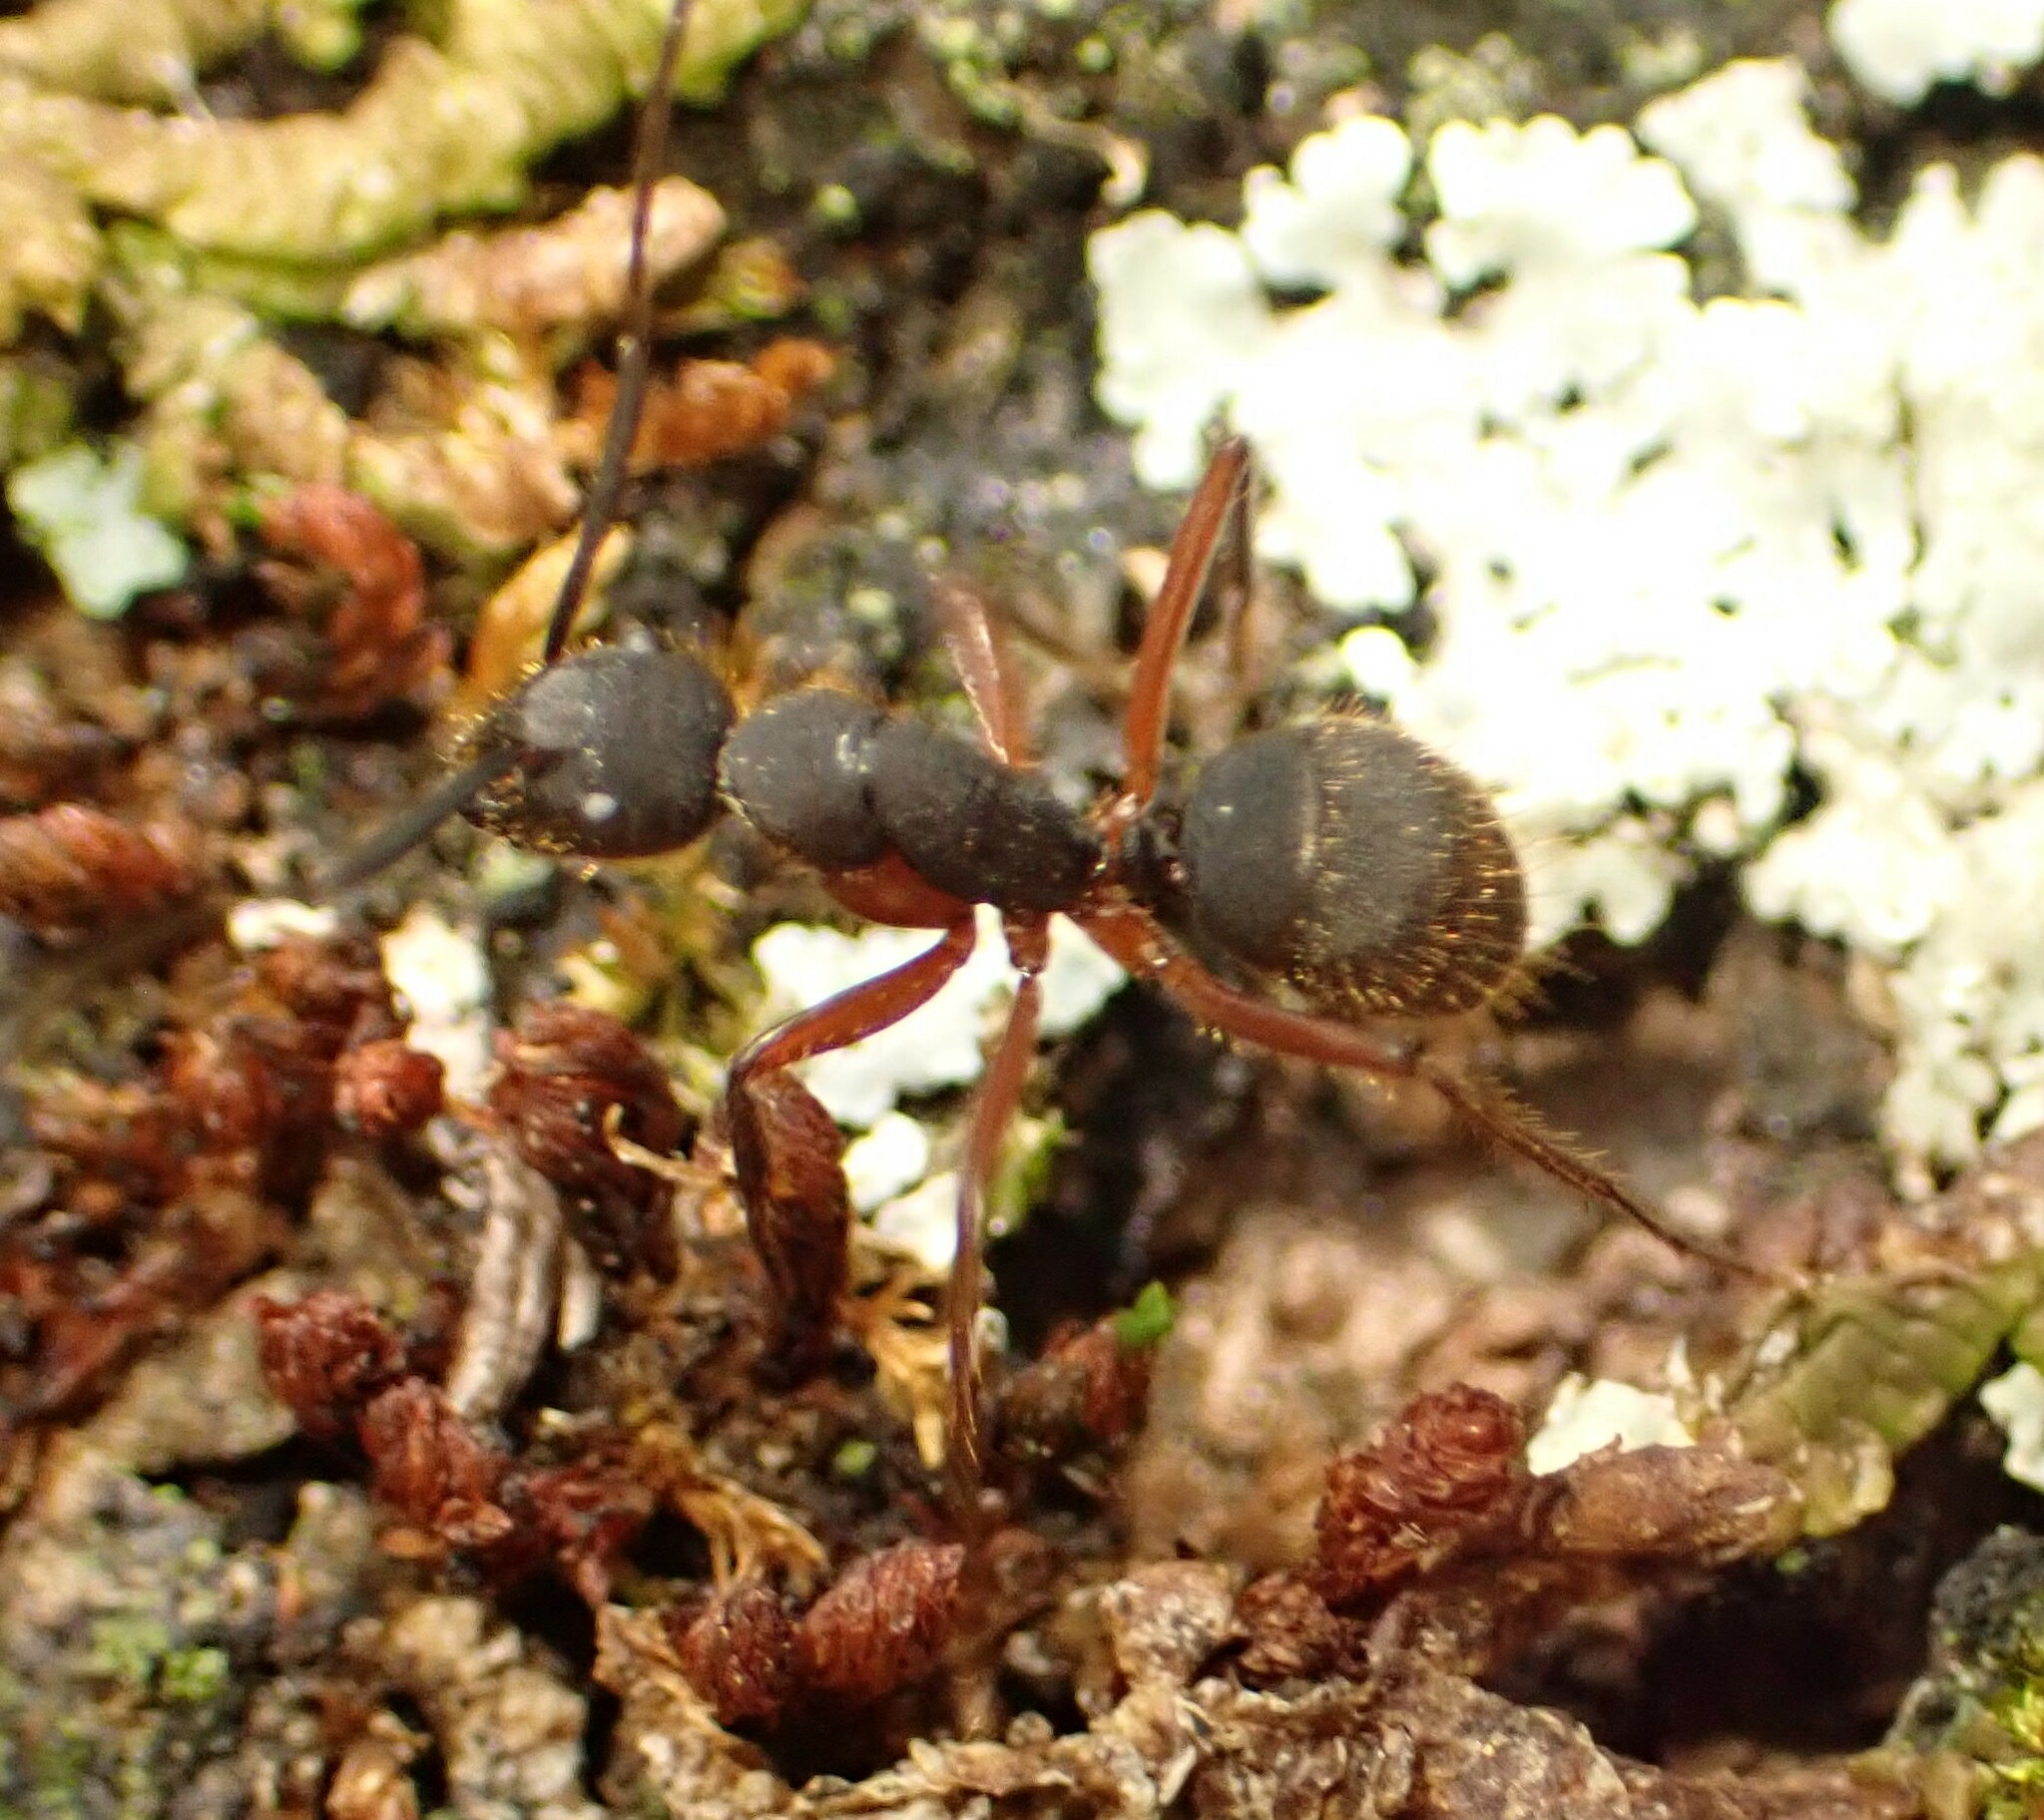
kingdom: Animalia
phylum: Arthropoda
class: Insecta
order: Hymenoptera
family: Formicidae
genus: Camponotus
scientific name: Camponotus rufipes
